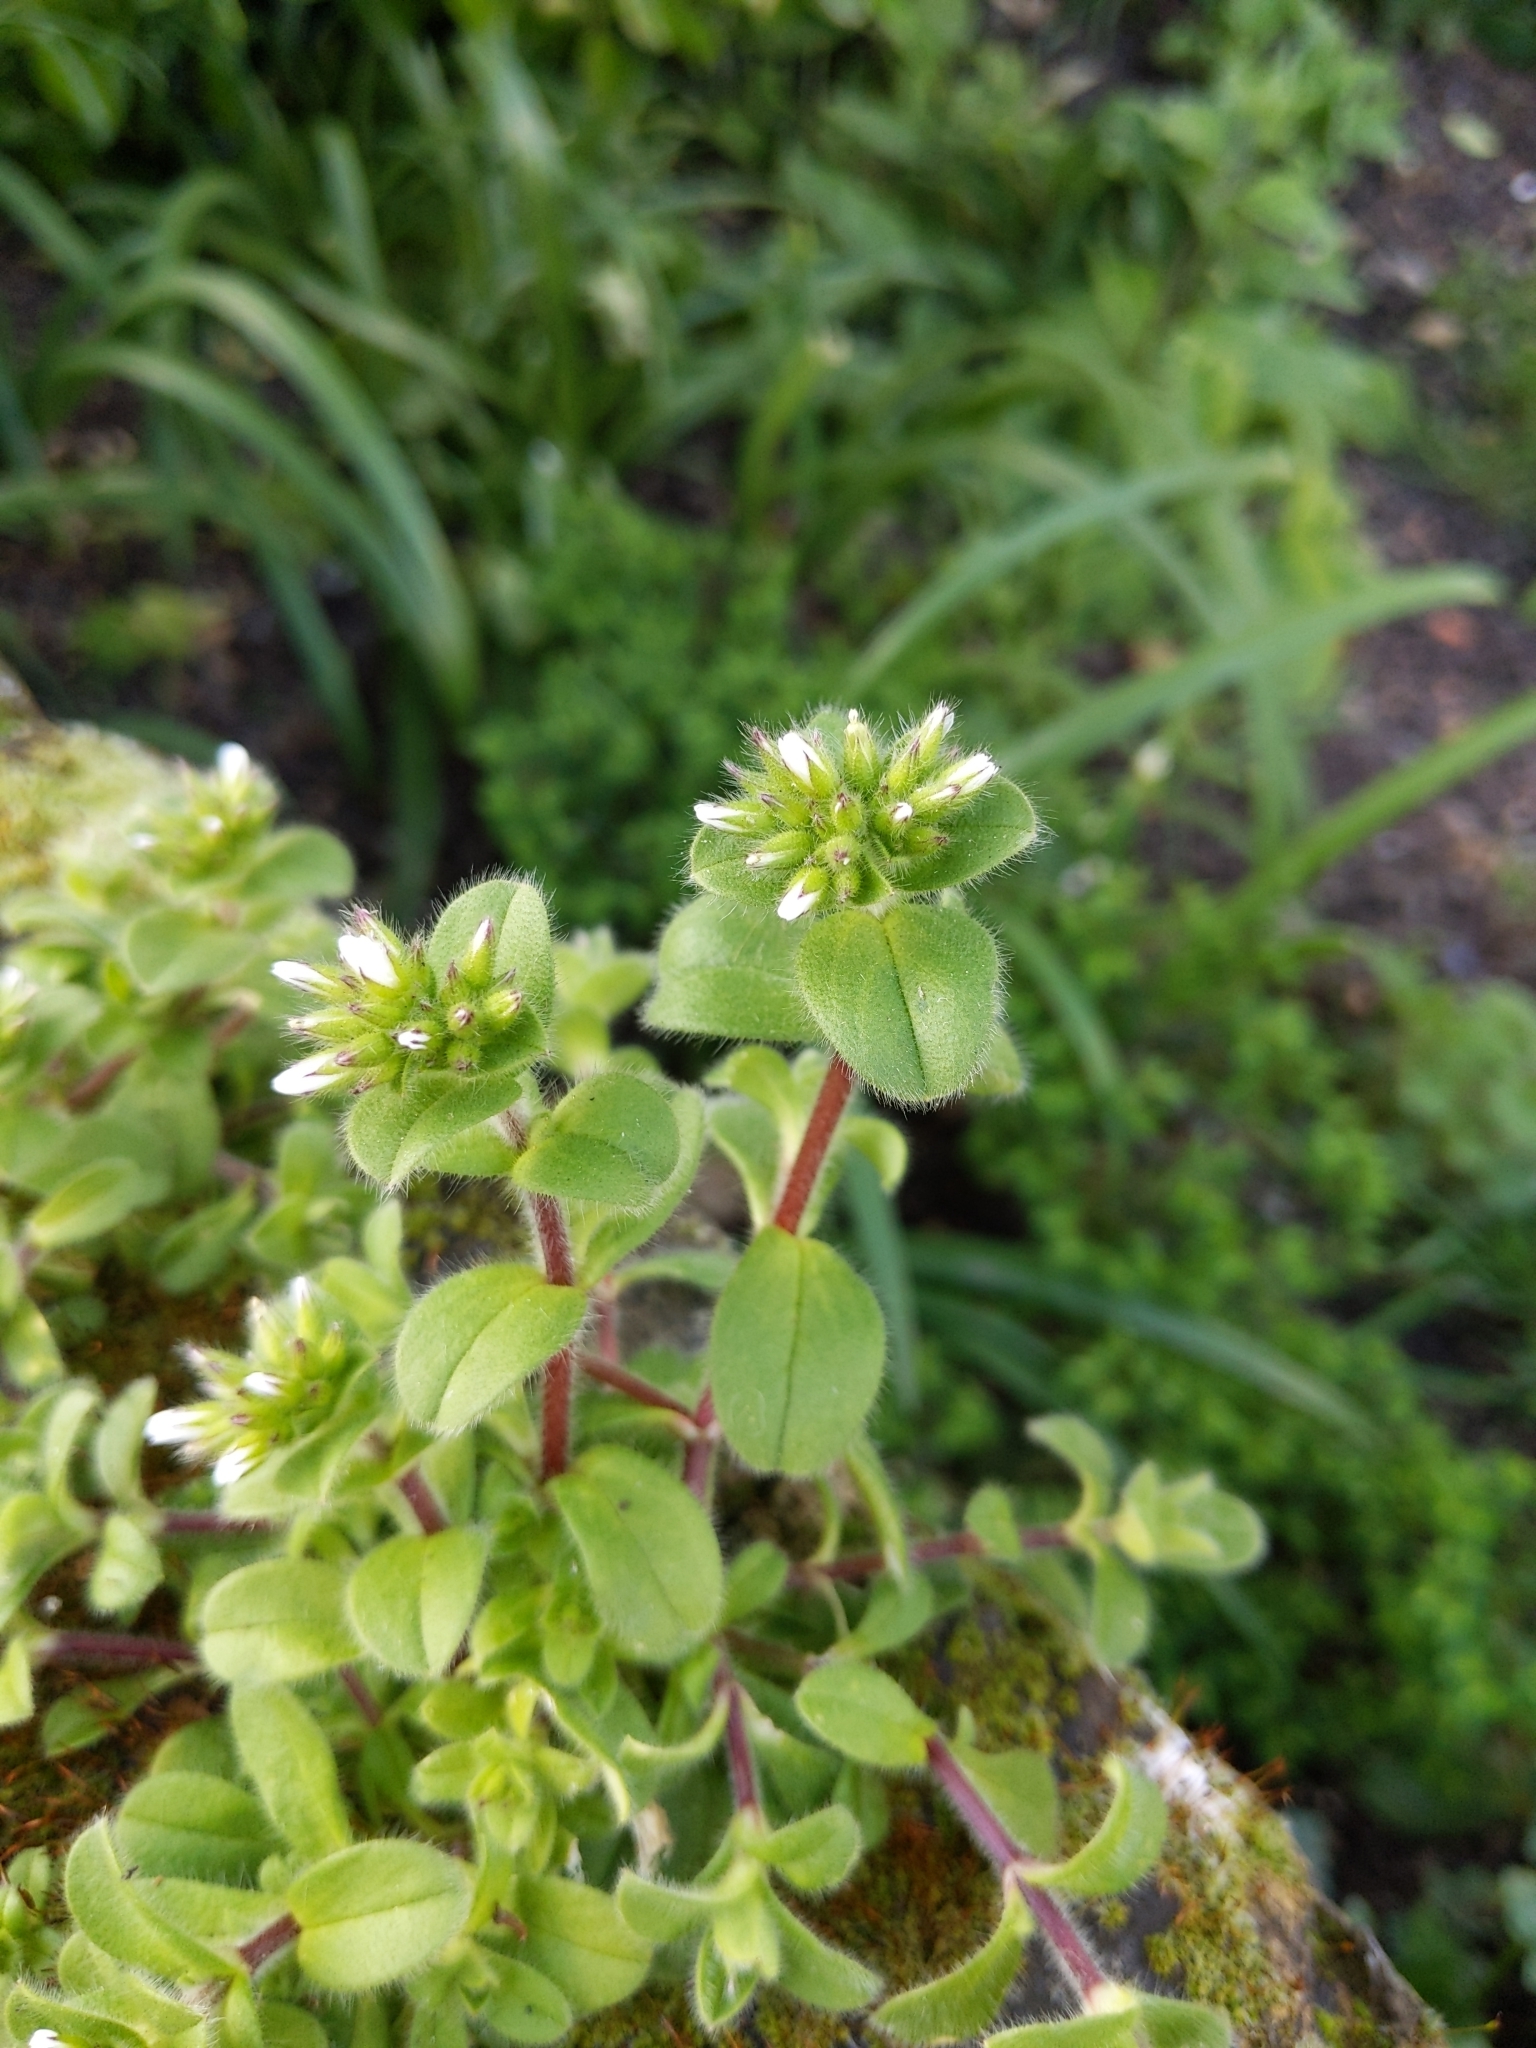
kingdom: Plantae
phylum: Tracheophyta
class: Magnoliopsida
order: Caryophyllales
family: Caryophyllaceae
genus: Cerastium
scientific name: Cerastium glomeratum
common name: Sticky chickweed
